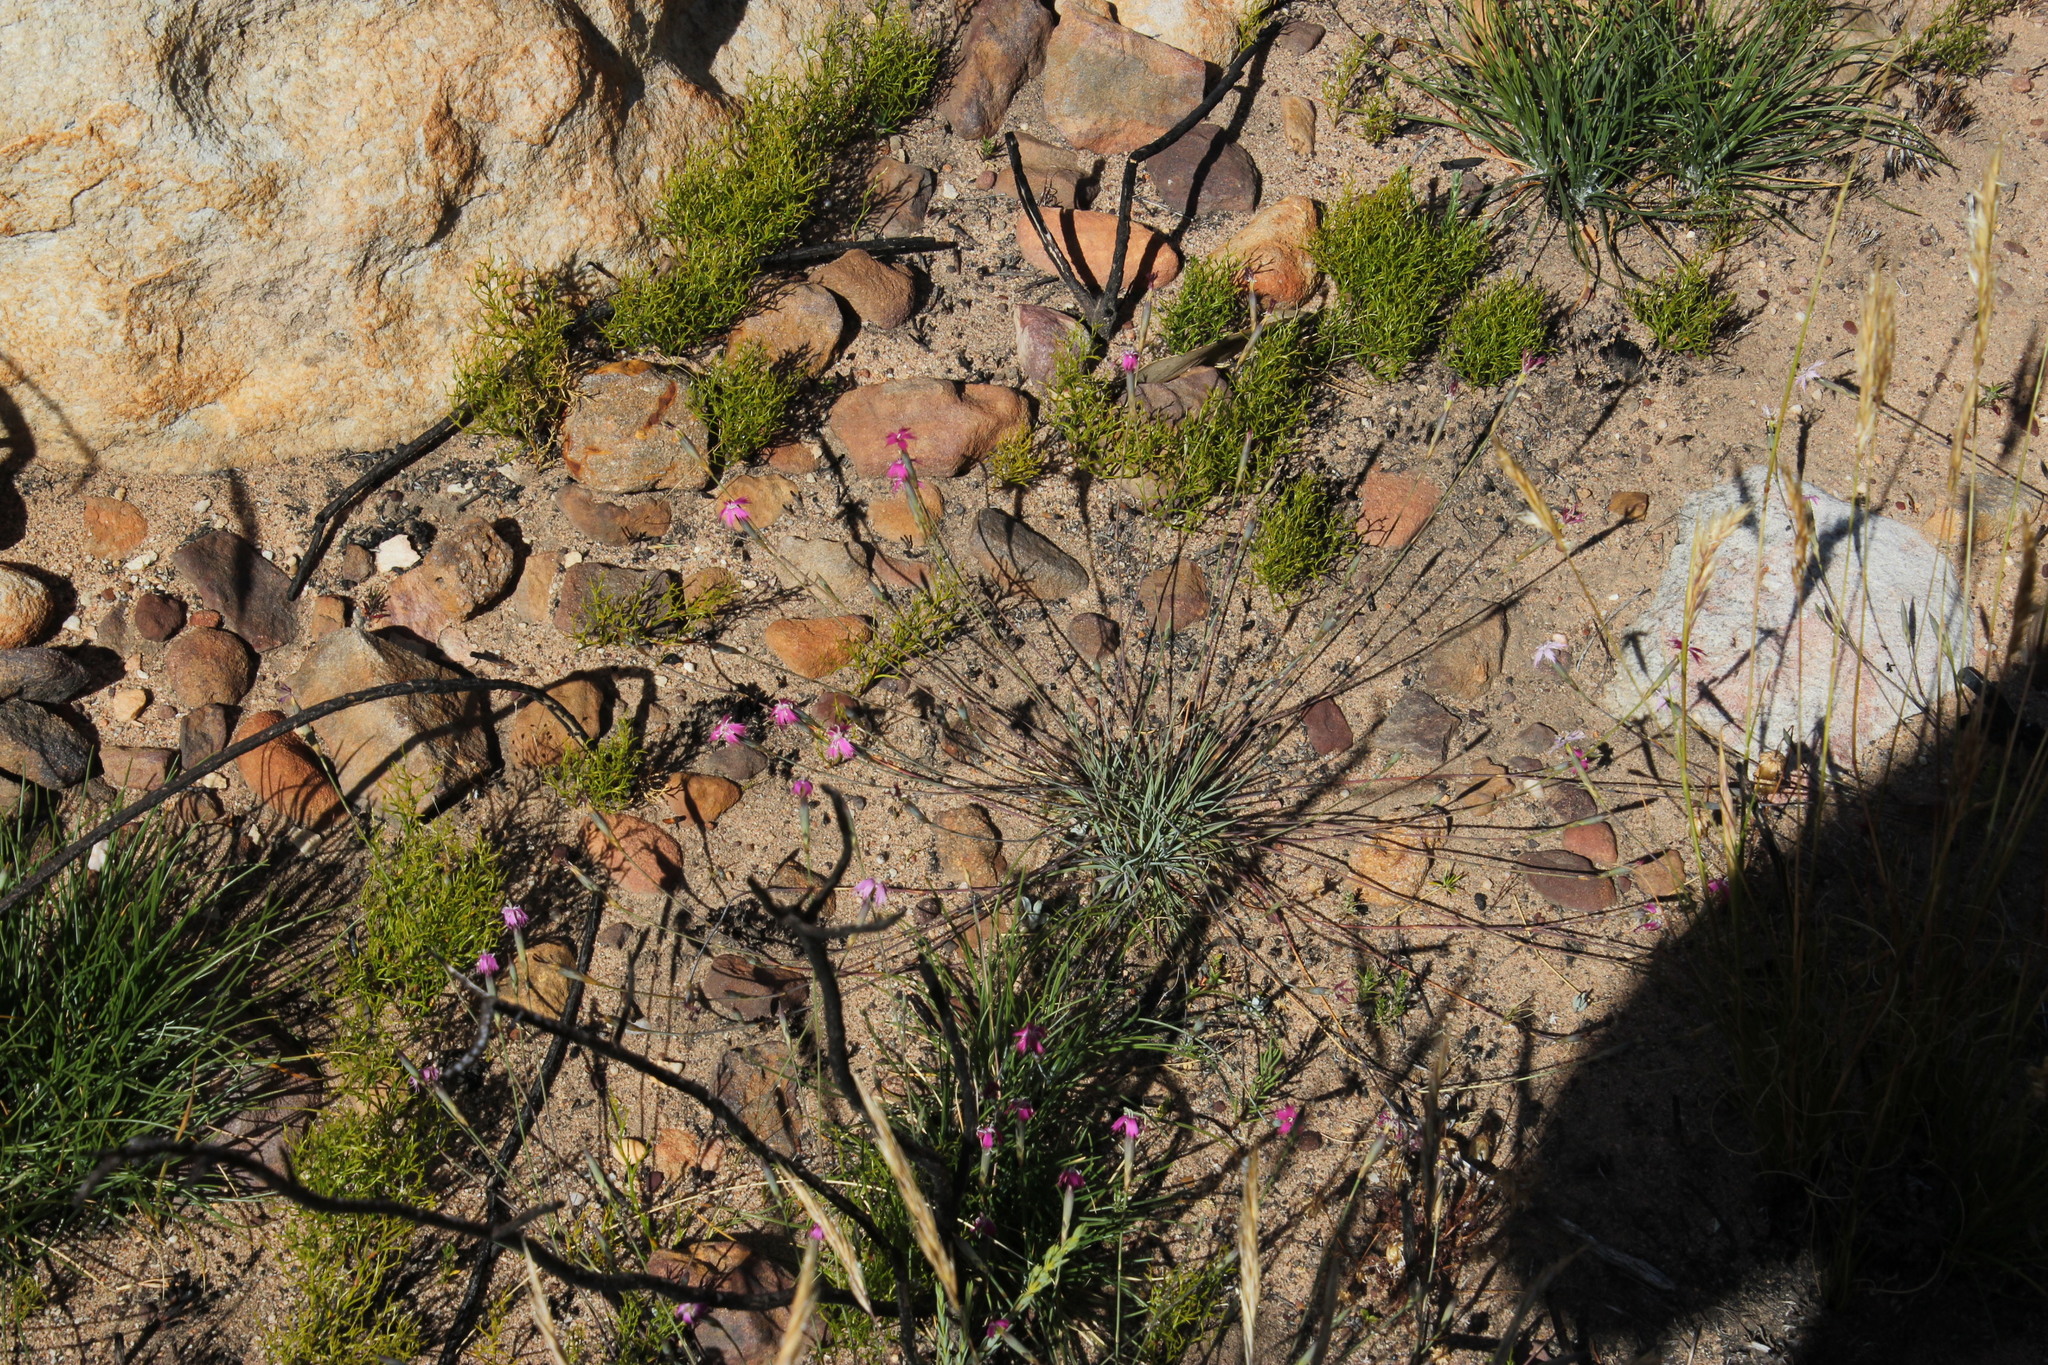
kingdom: Plantae
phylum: Tracheophyta
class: Magnoliopsida
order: Caryophyllales
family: Caryophyllaceae
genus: Dianthus
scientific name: Dianthus bolusii
